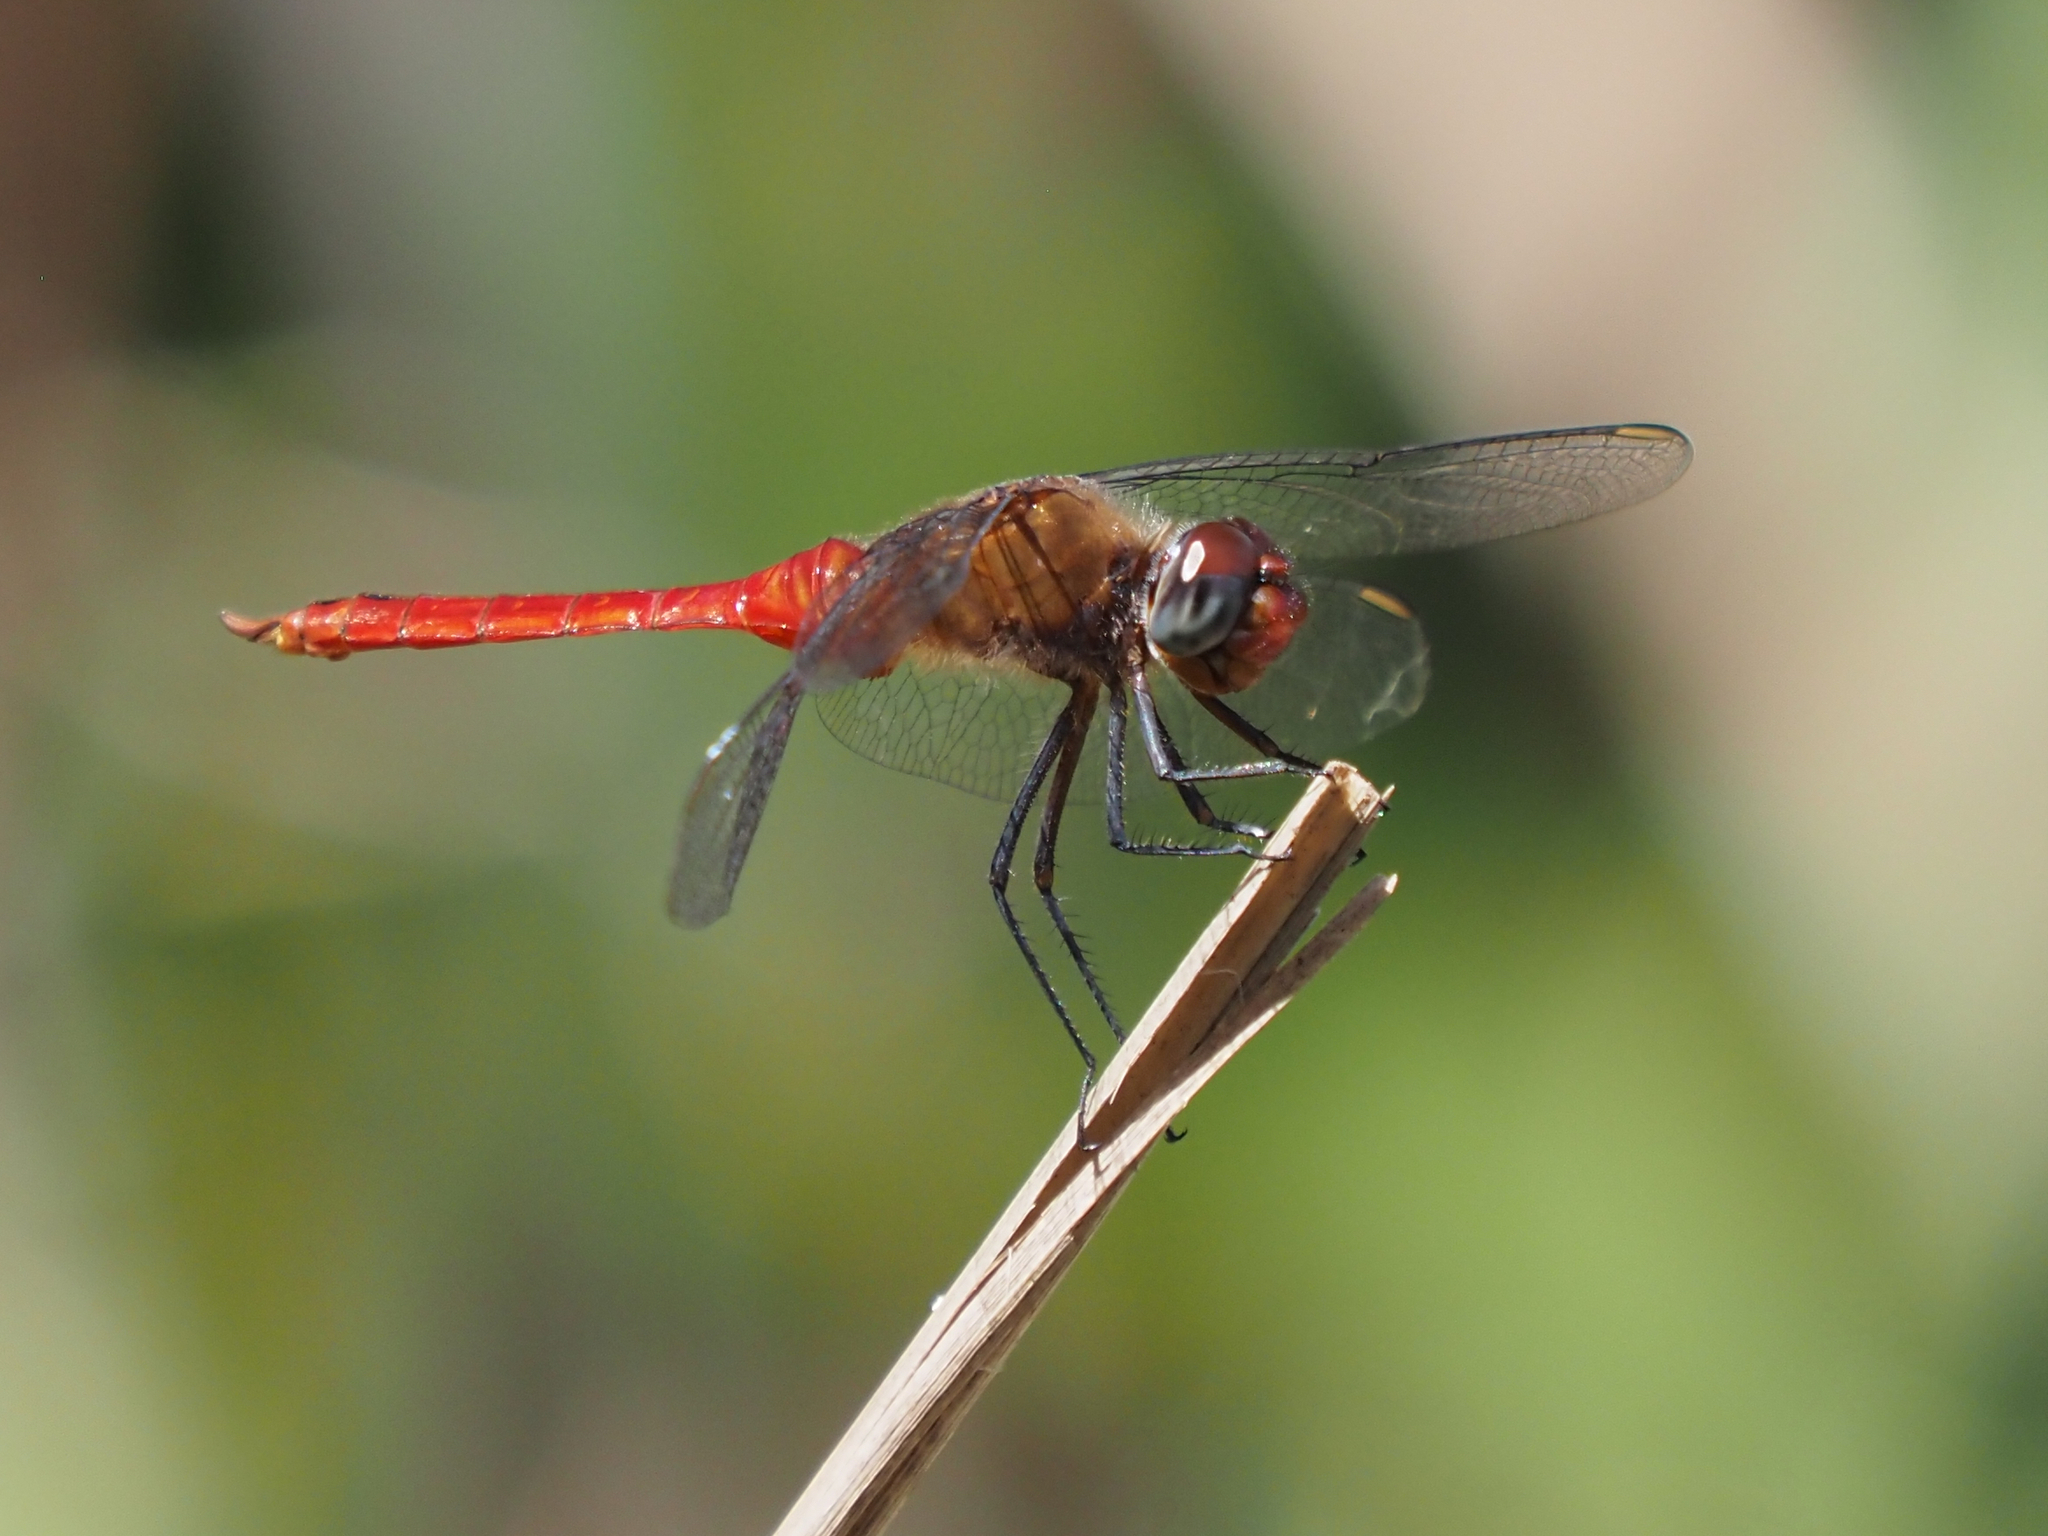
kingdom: Animalia
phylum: Arthropoda
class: Insecta
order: Odonata
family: Libellulidae
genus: Brachymesia
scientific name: Brachymesia furcata
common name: Red-taled pennant
